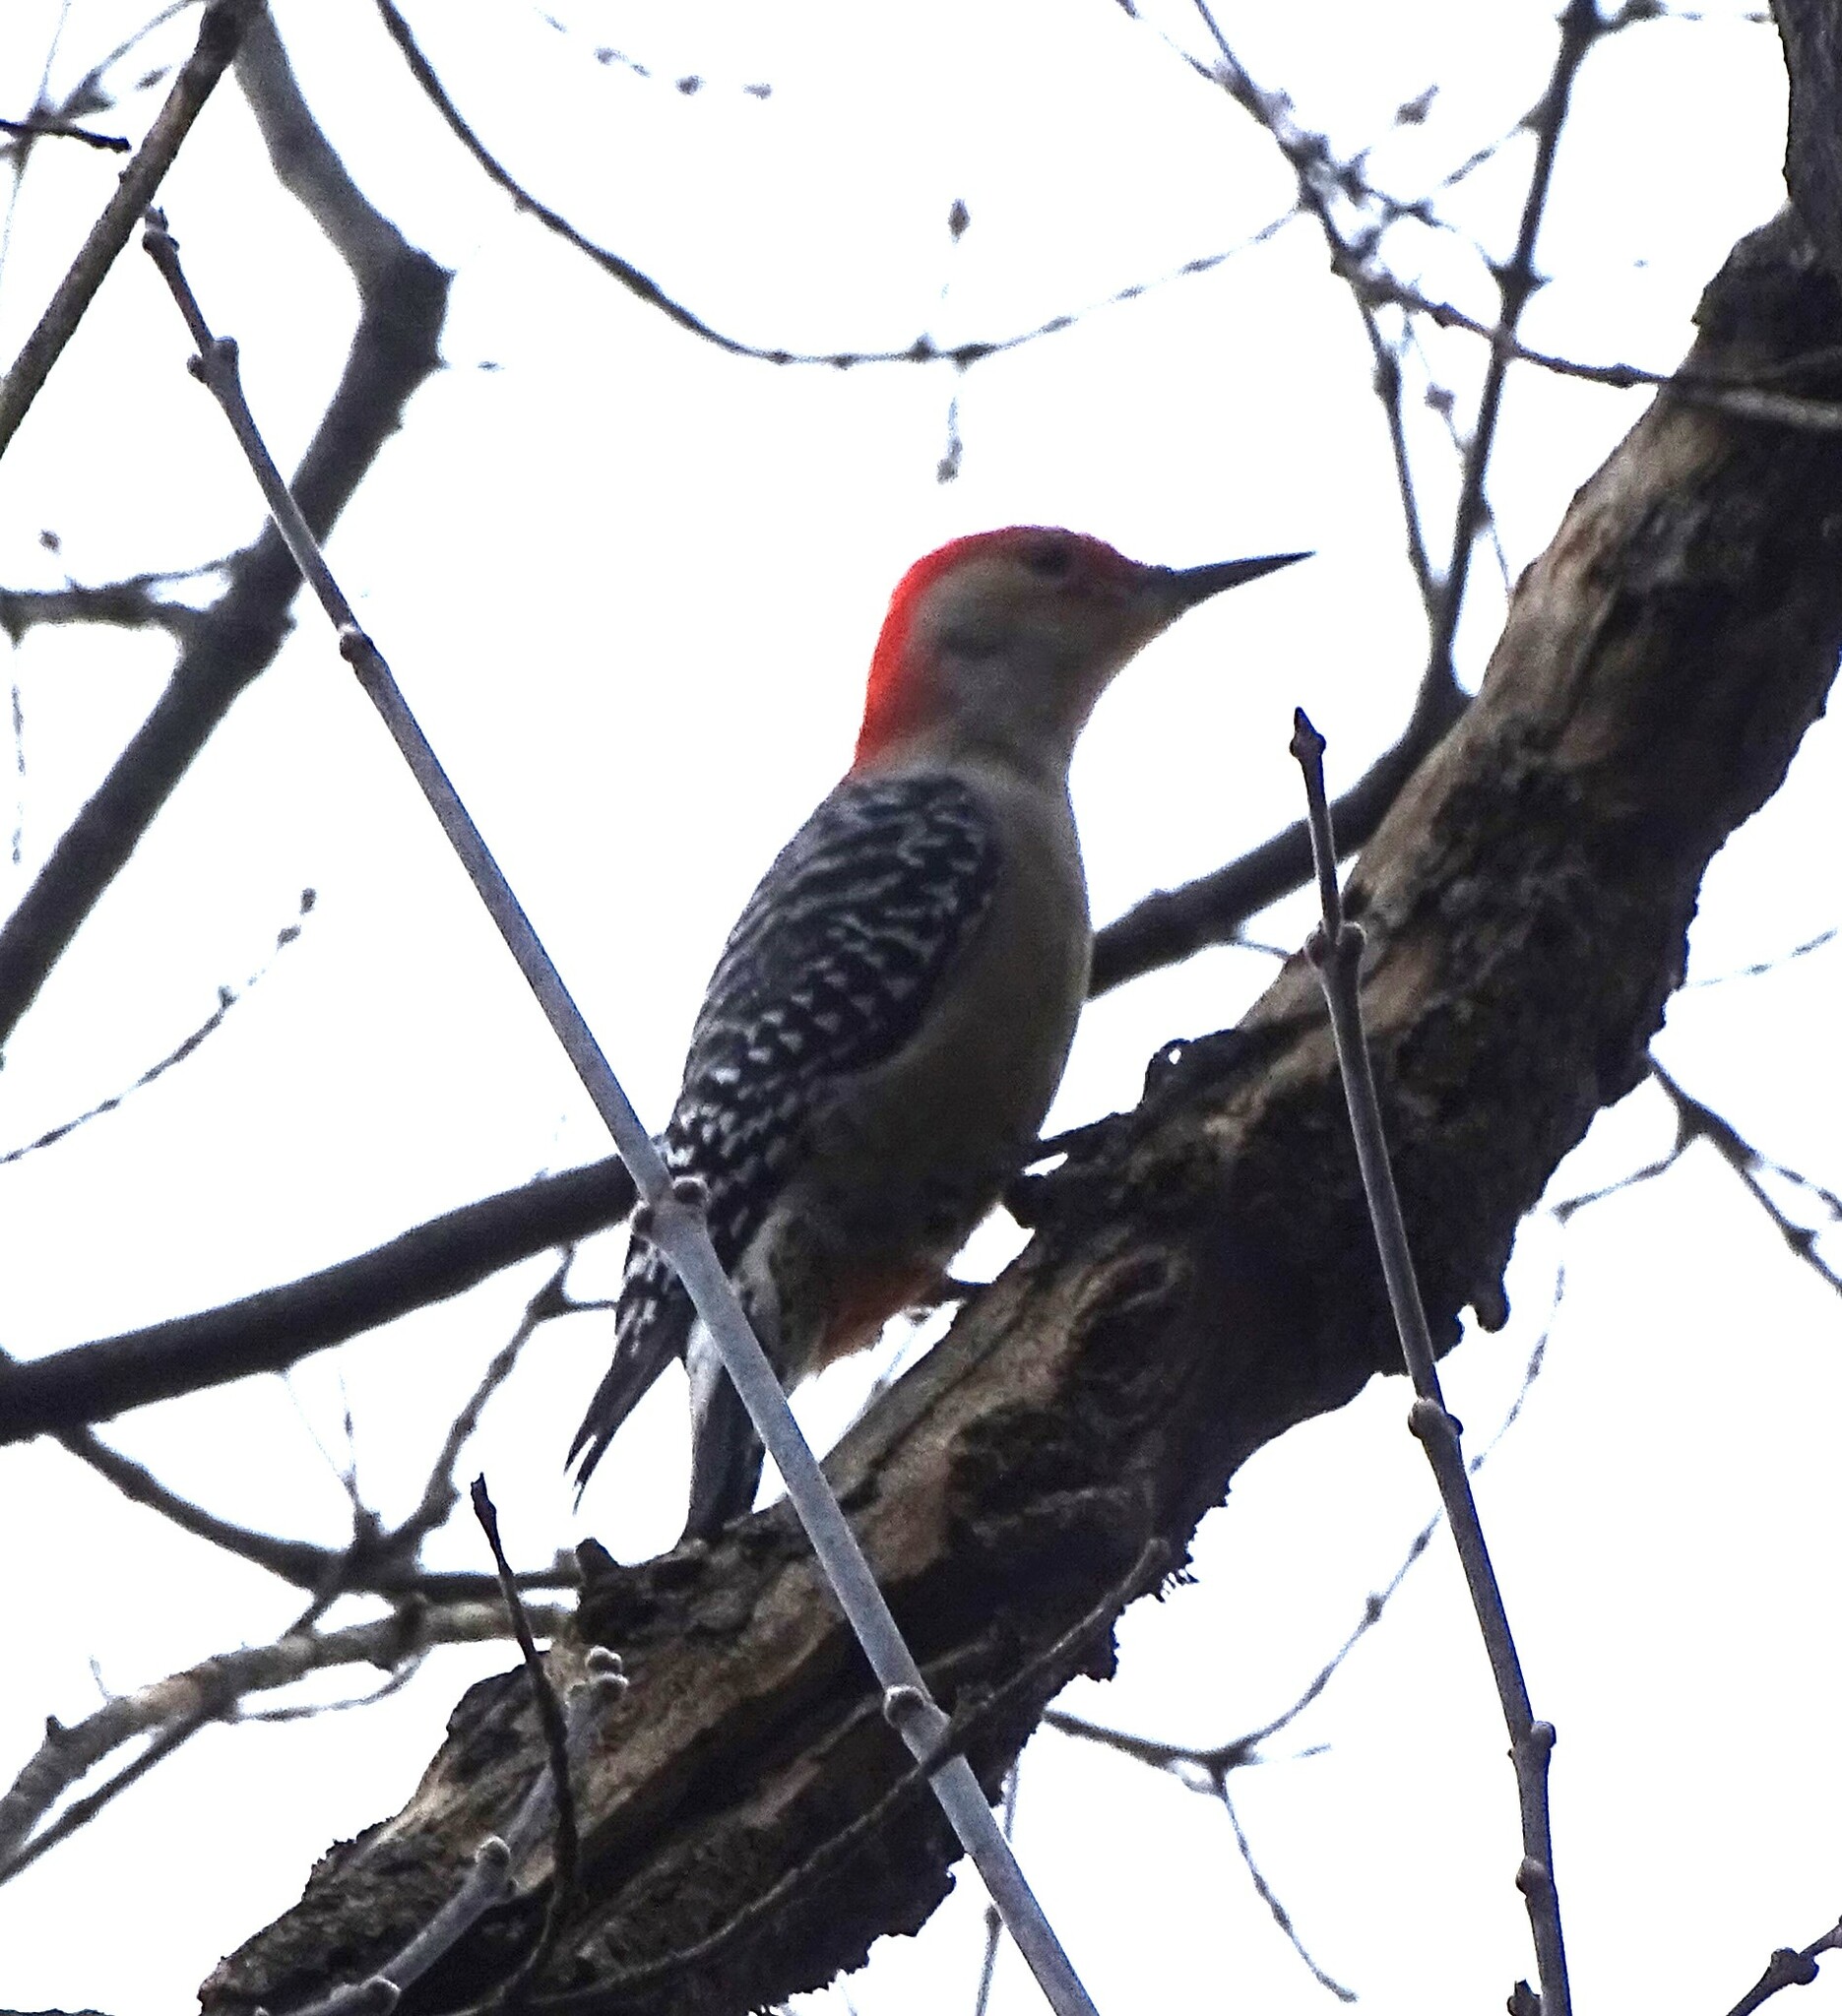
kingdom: Animalia
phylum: Chordata
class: Aves
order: Piciformes
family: Picidae
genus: Melanerpes
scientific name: Melanerpes carolinus
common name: Red-bellied woodpecker
